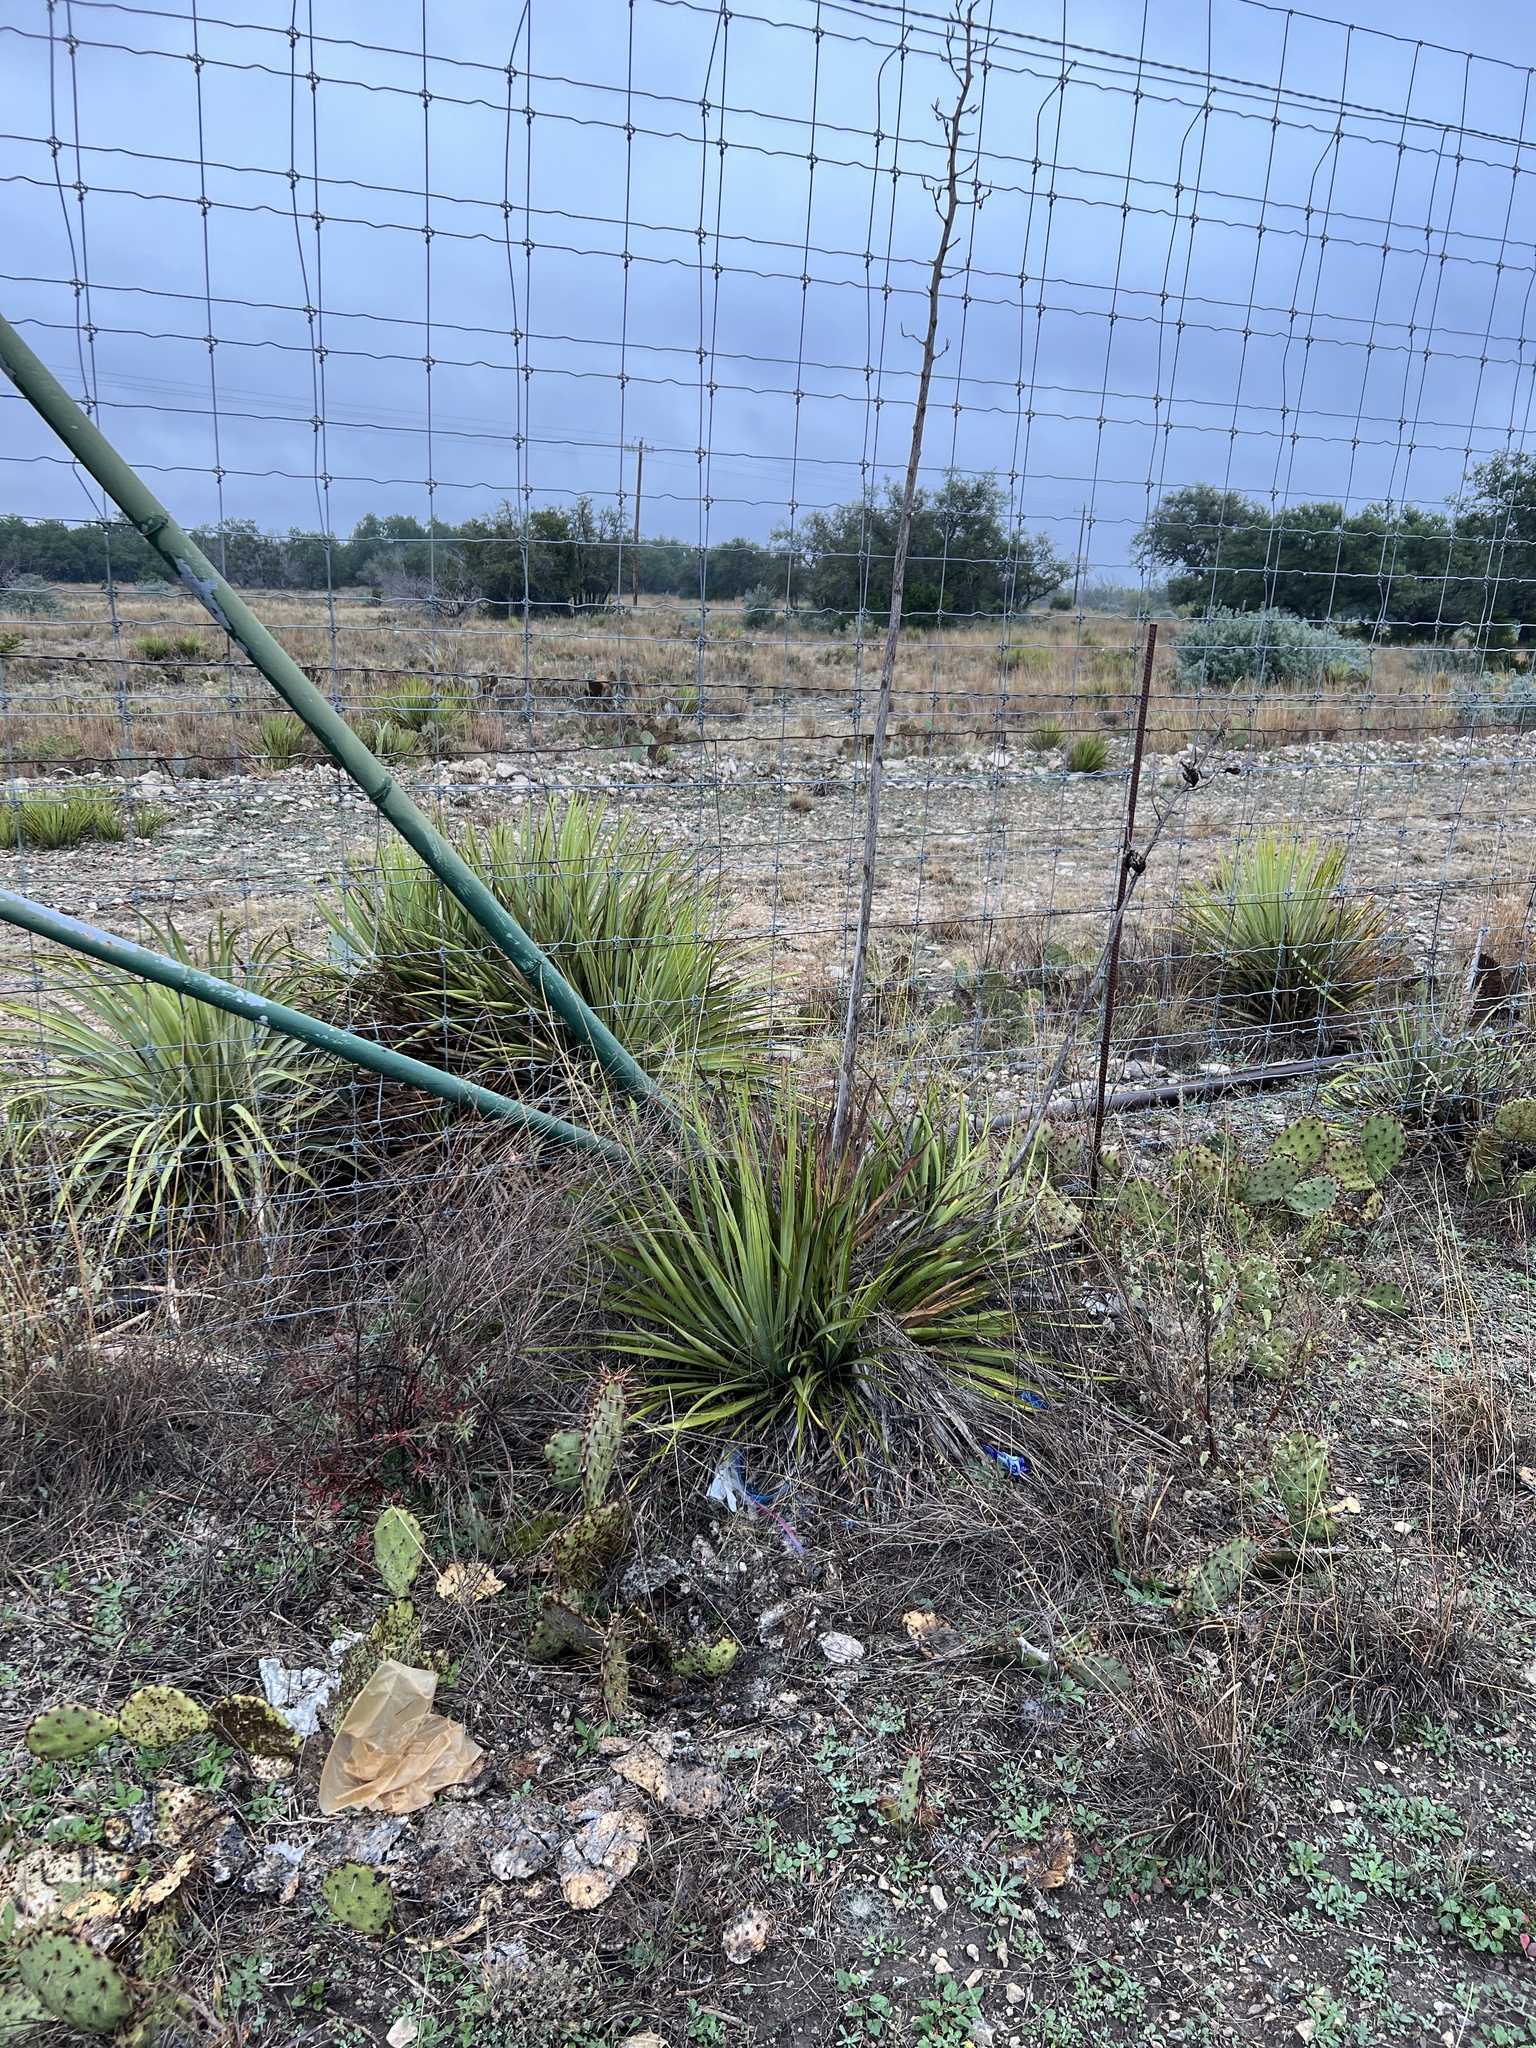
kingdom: Plantae
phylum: Tracheophyta
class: Liliopsida
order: Asparagales
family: Asparagaceae
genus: Yucca
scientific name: Yucca reverchonii
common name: San angelo yucca
